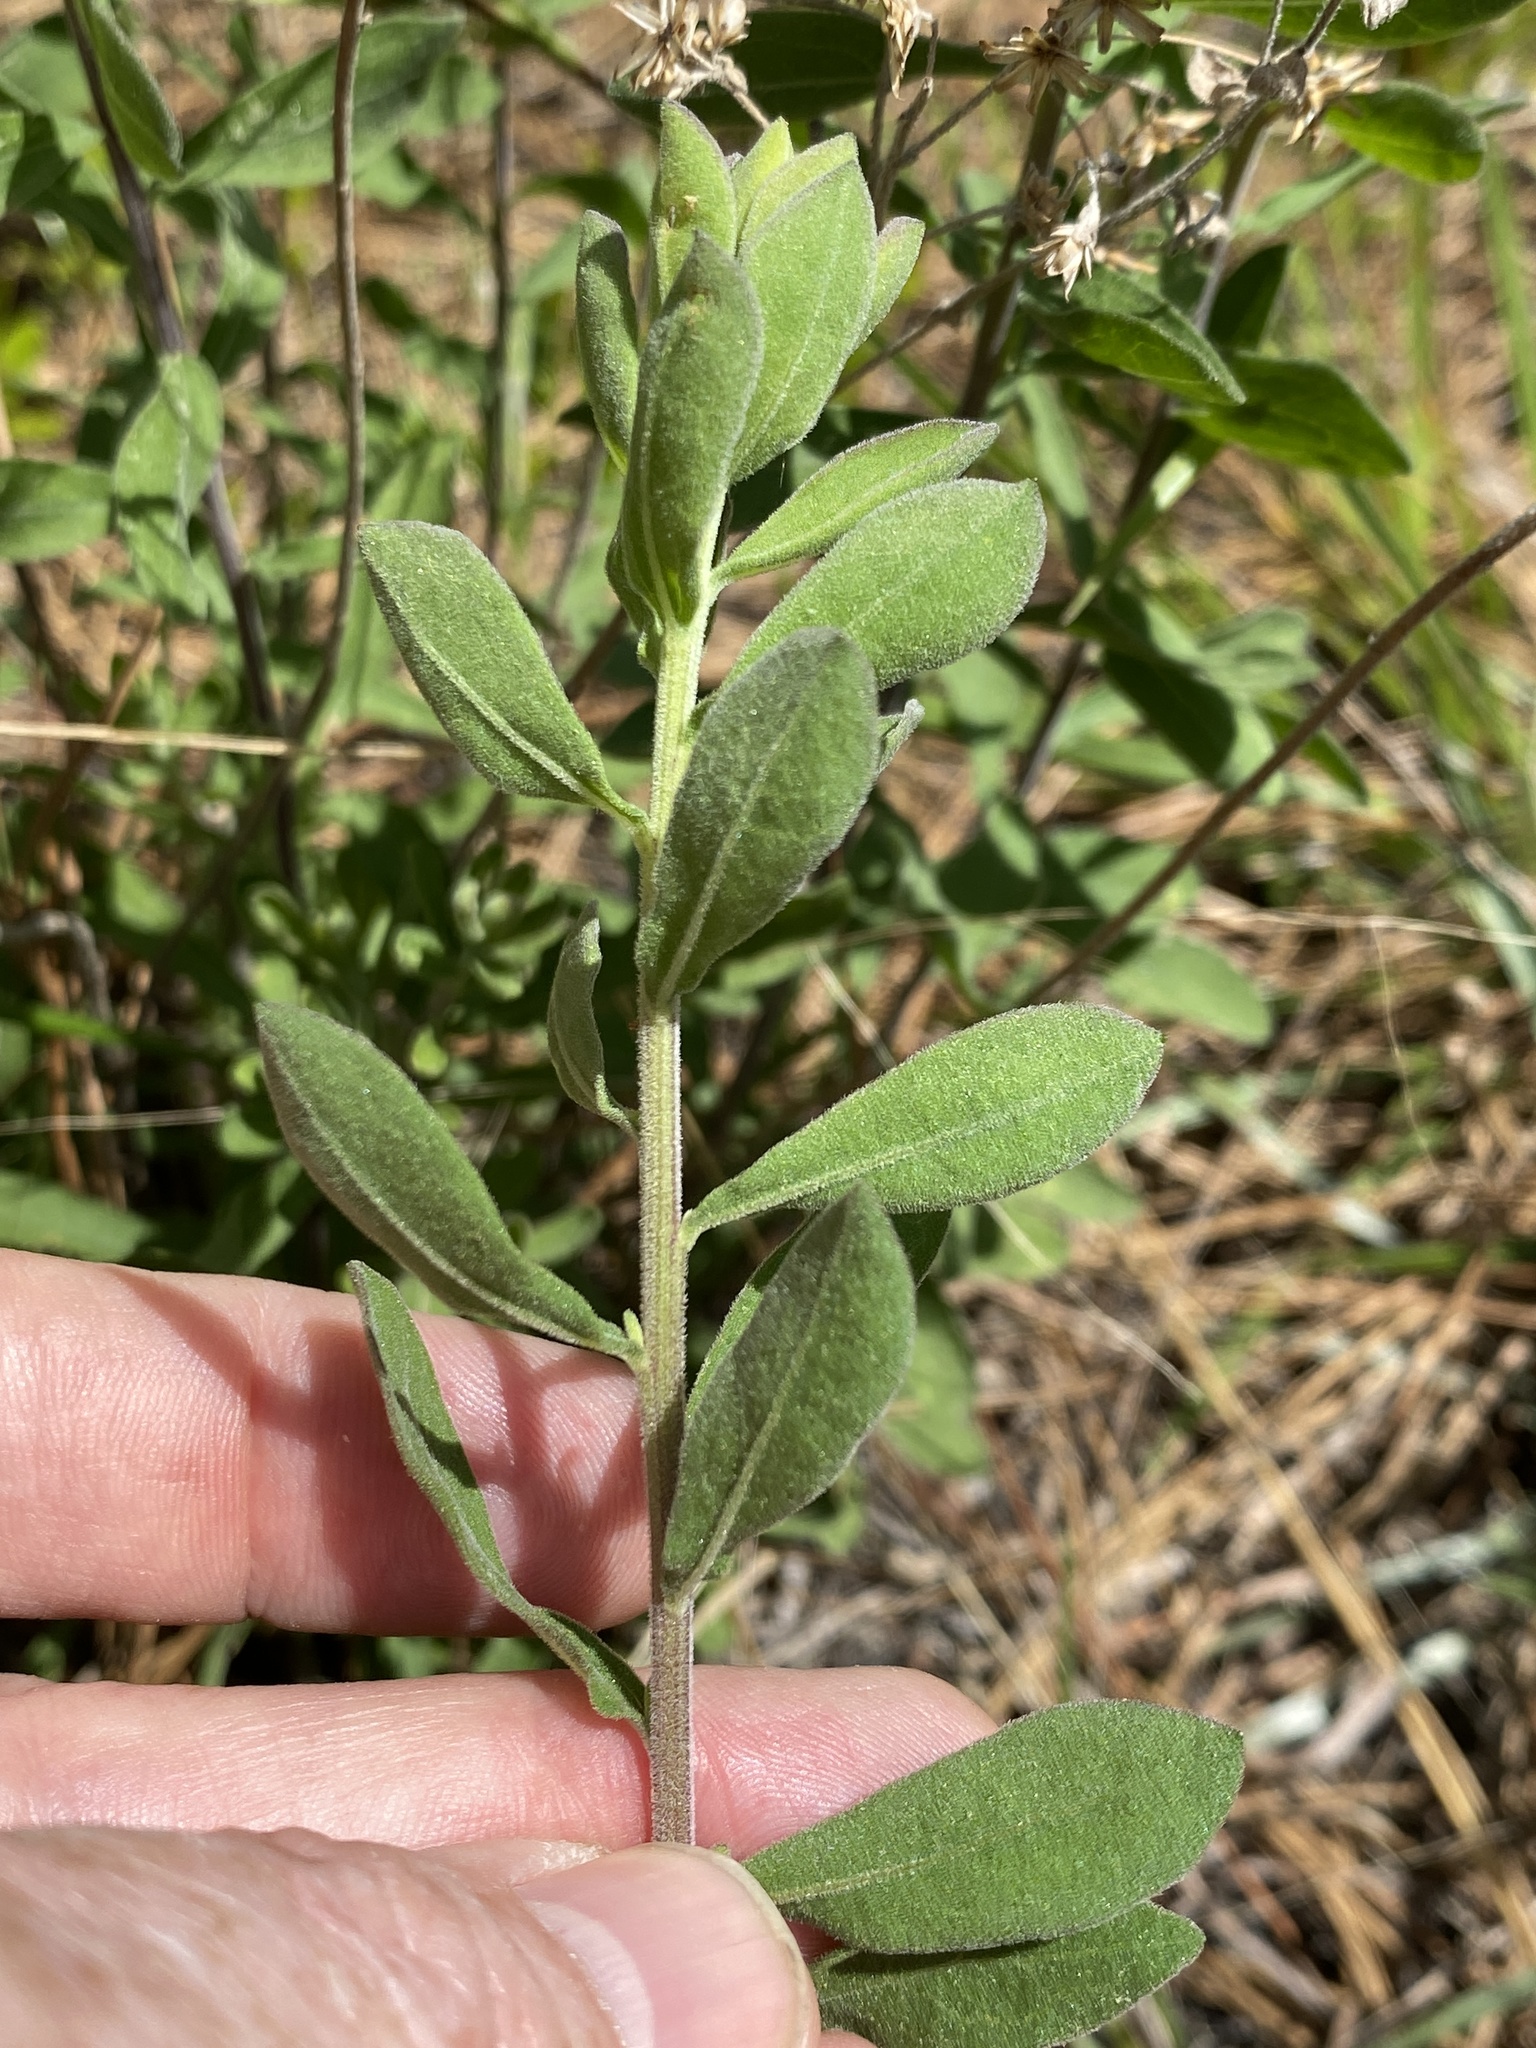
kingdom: Plantae
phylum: Tracheophyta
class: Magnoliopsida
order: Asterales
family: Asteraceae
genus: Sericocarpus
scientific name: Sericocarpus tortifolius
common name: Dixie aster
